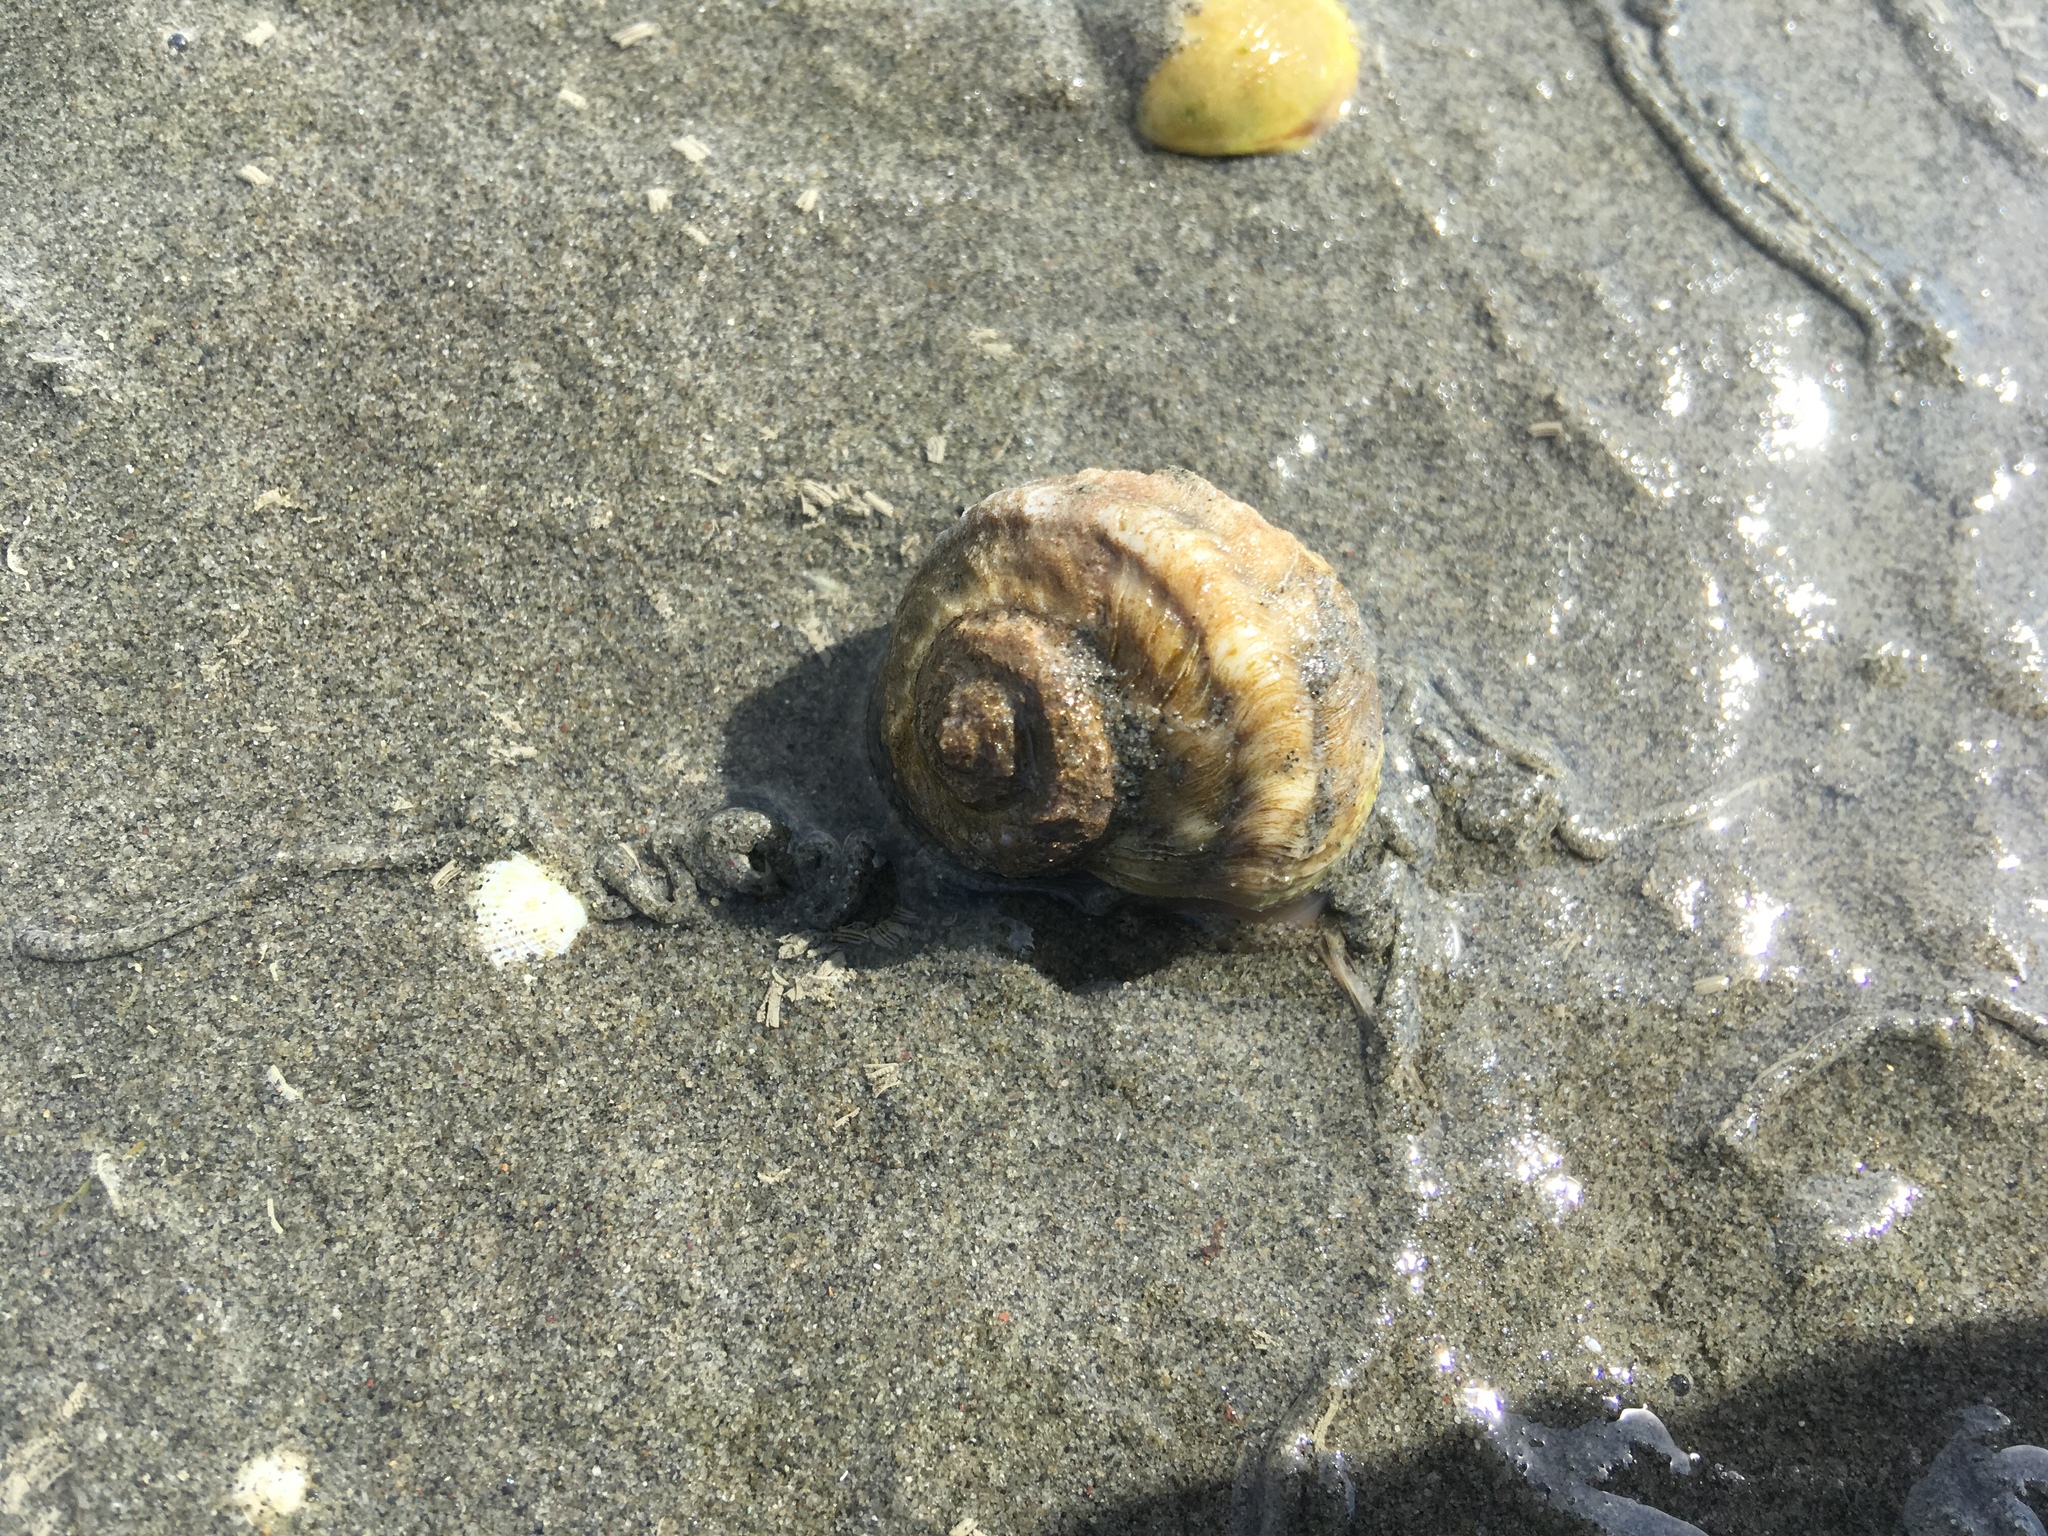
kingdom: Animalia
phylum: Mollusca
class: Gastropoda
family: Amphibolidae
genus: Amphibola
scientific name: Amphibola crenata
